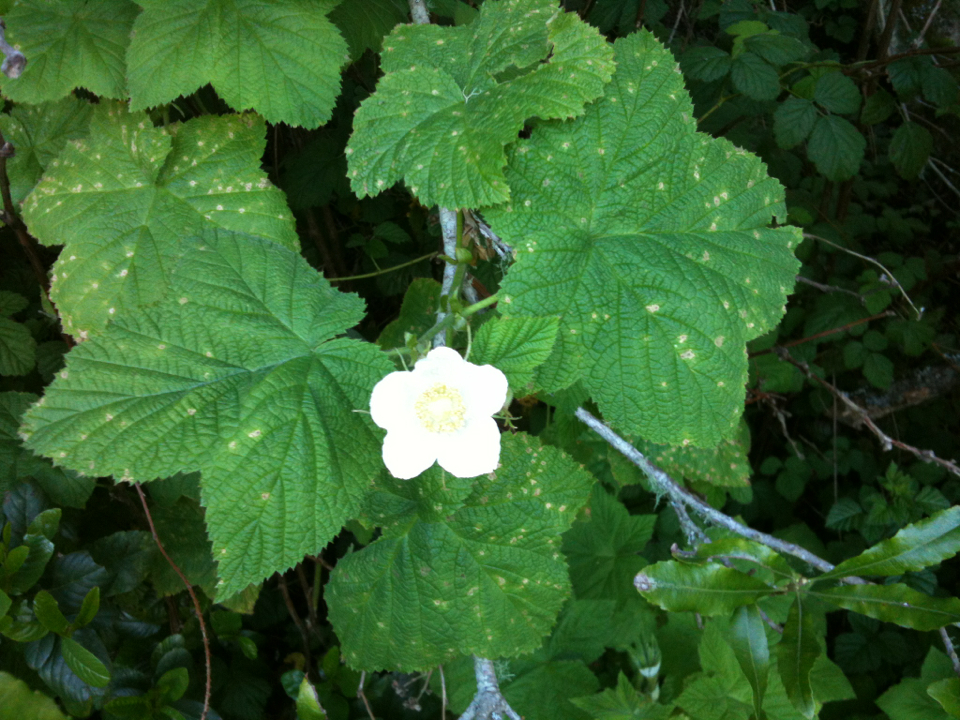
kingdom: Plantae
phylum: Tracheophyta
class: Magnoliopsida
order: Rosales
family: Rosaceae
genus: Rubus
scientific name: Rubus parviflorus
